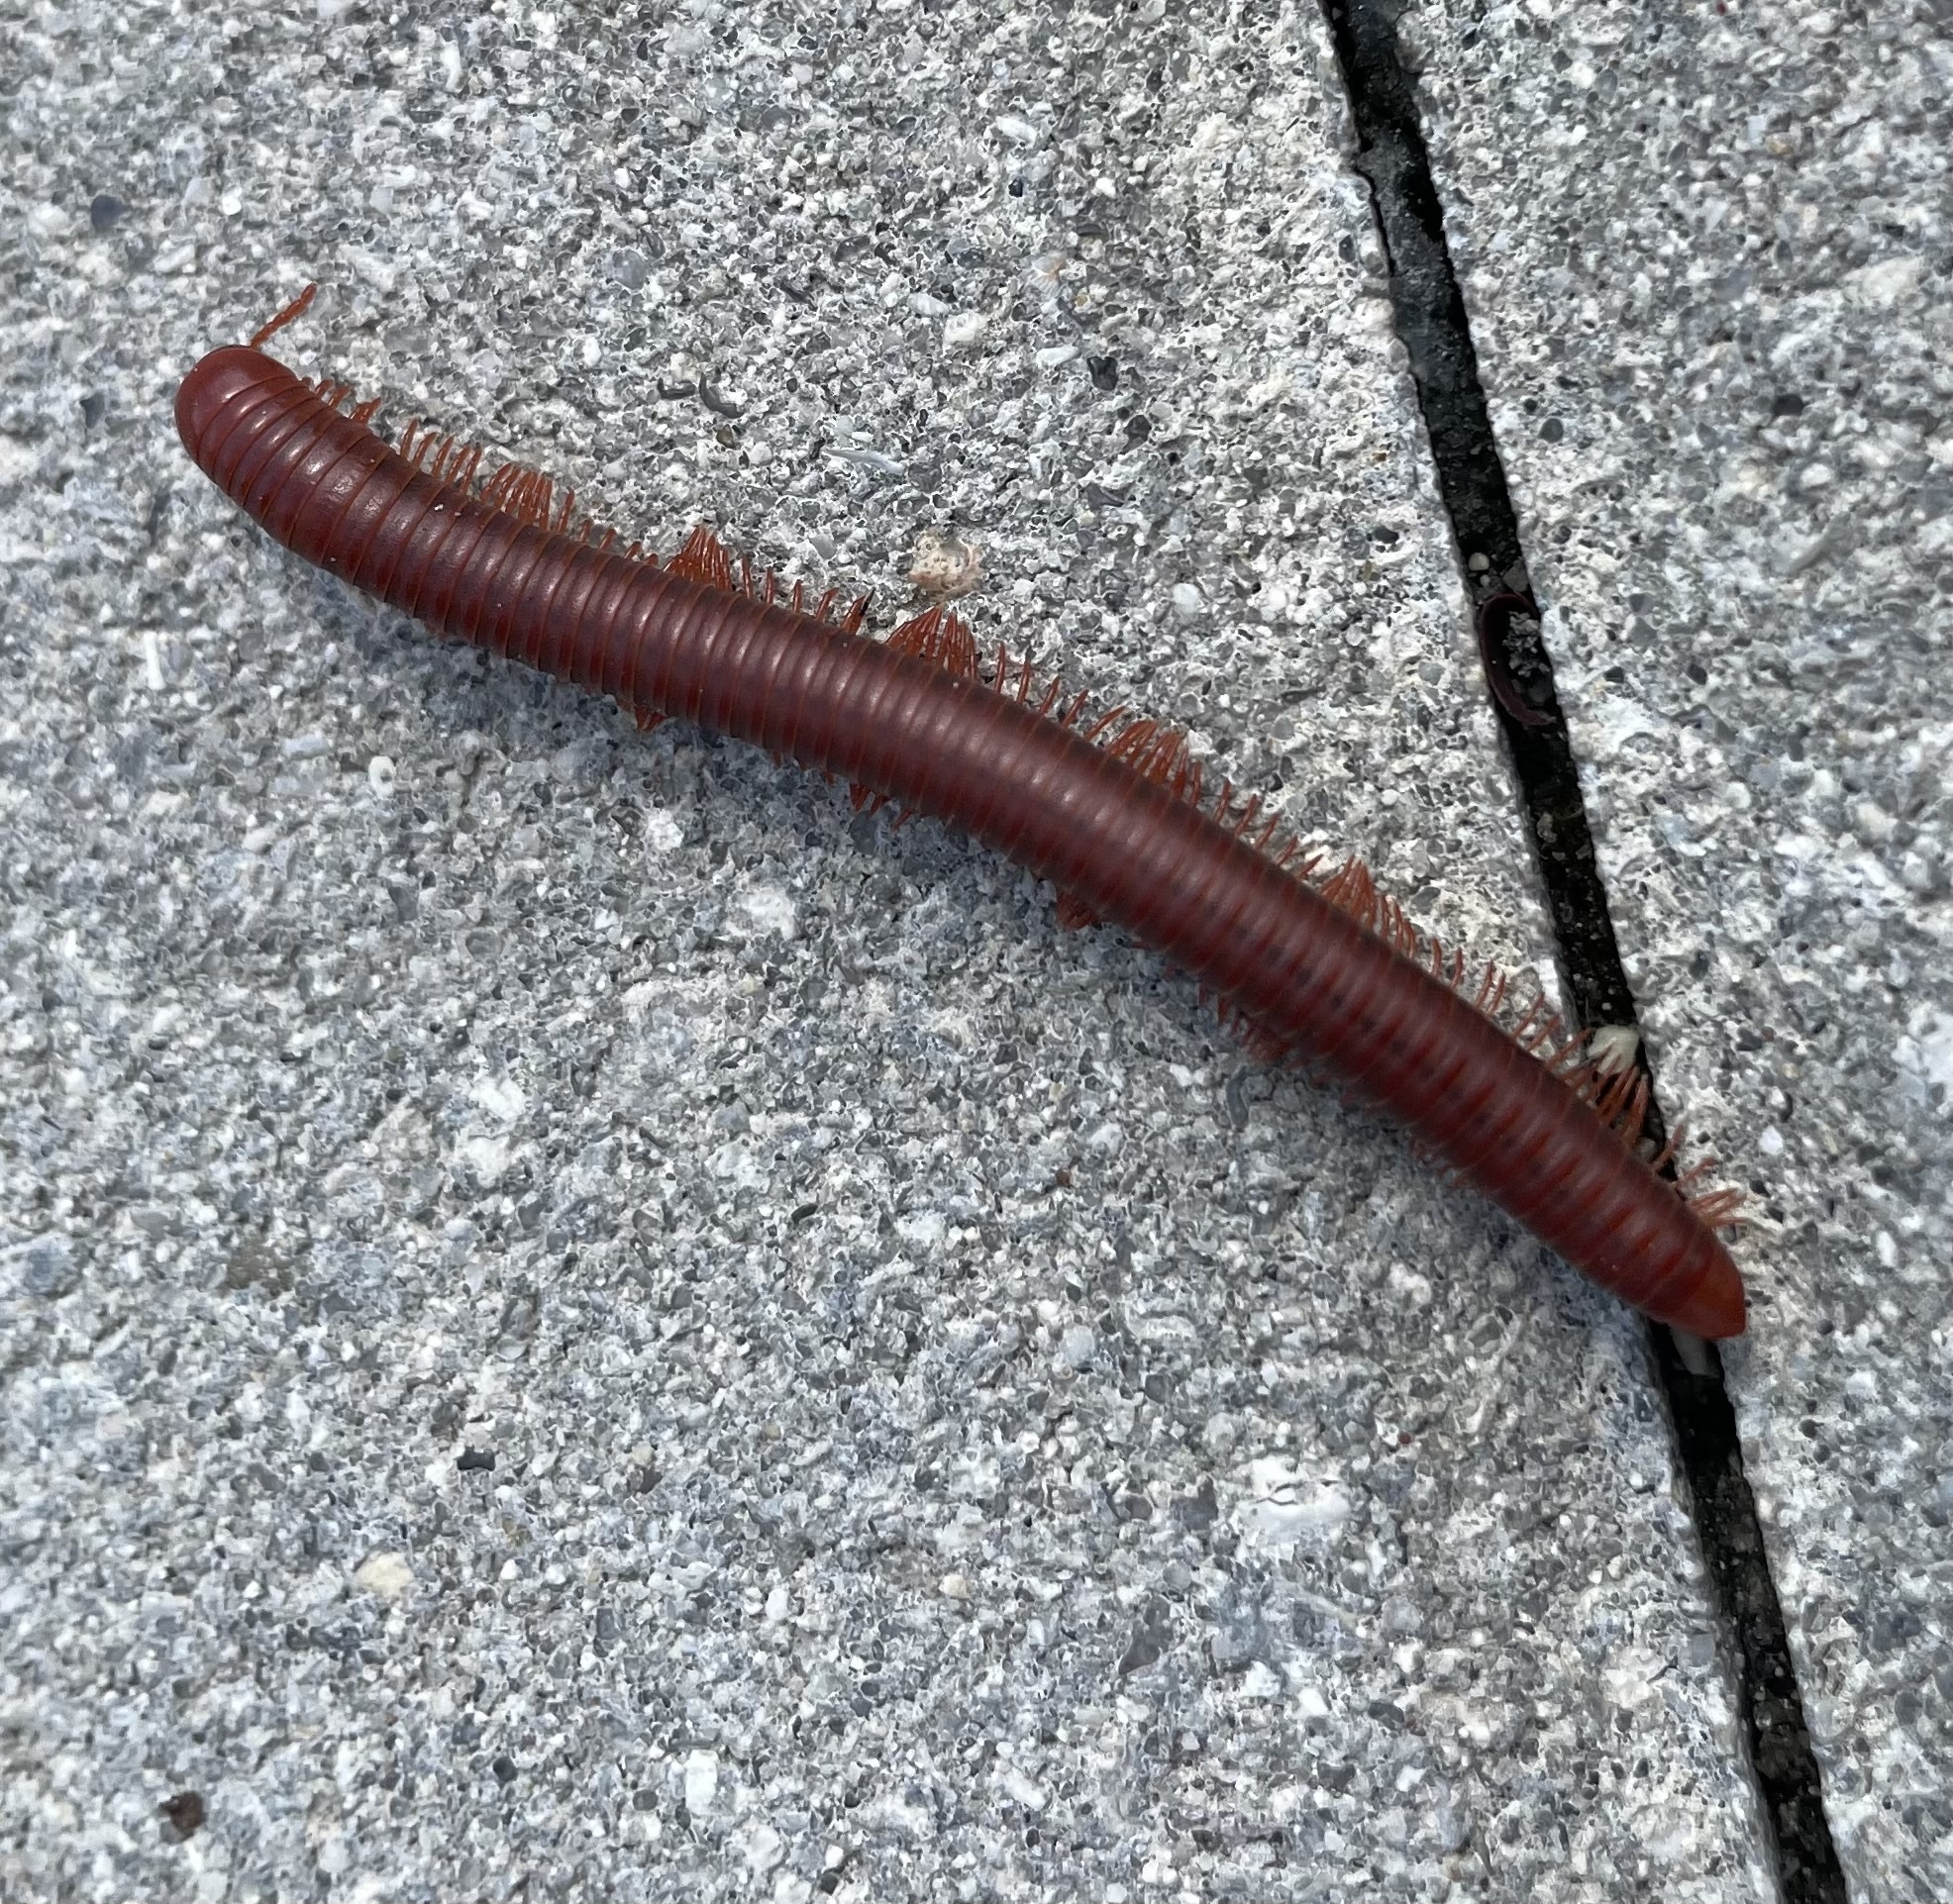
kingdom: Animalia
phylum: Arthropoda
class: Diplopoda
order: Spirobolida
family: Pachybolidae
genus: Trigoniulus
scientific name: Trigoniulus corallinus
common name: Millipede
